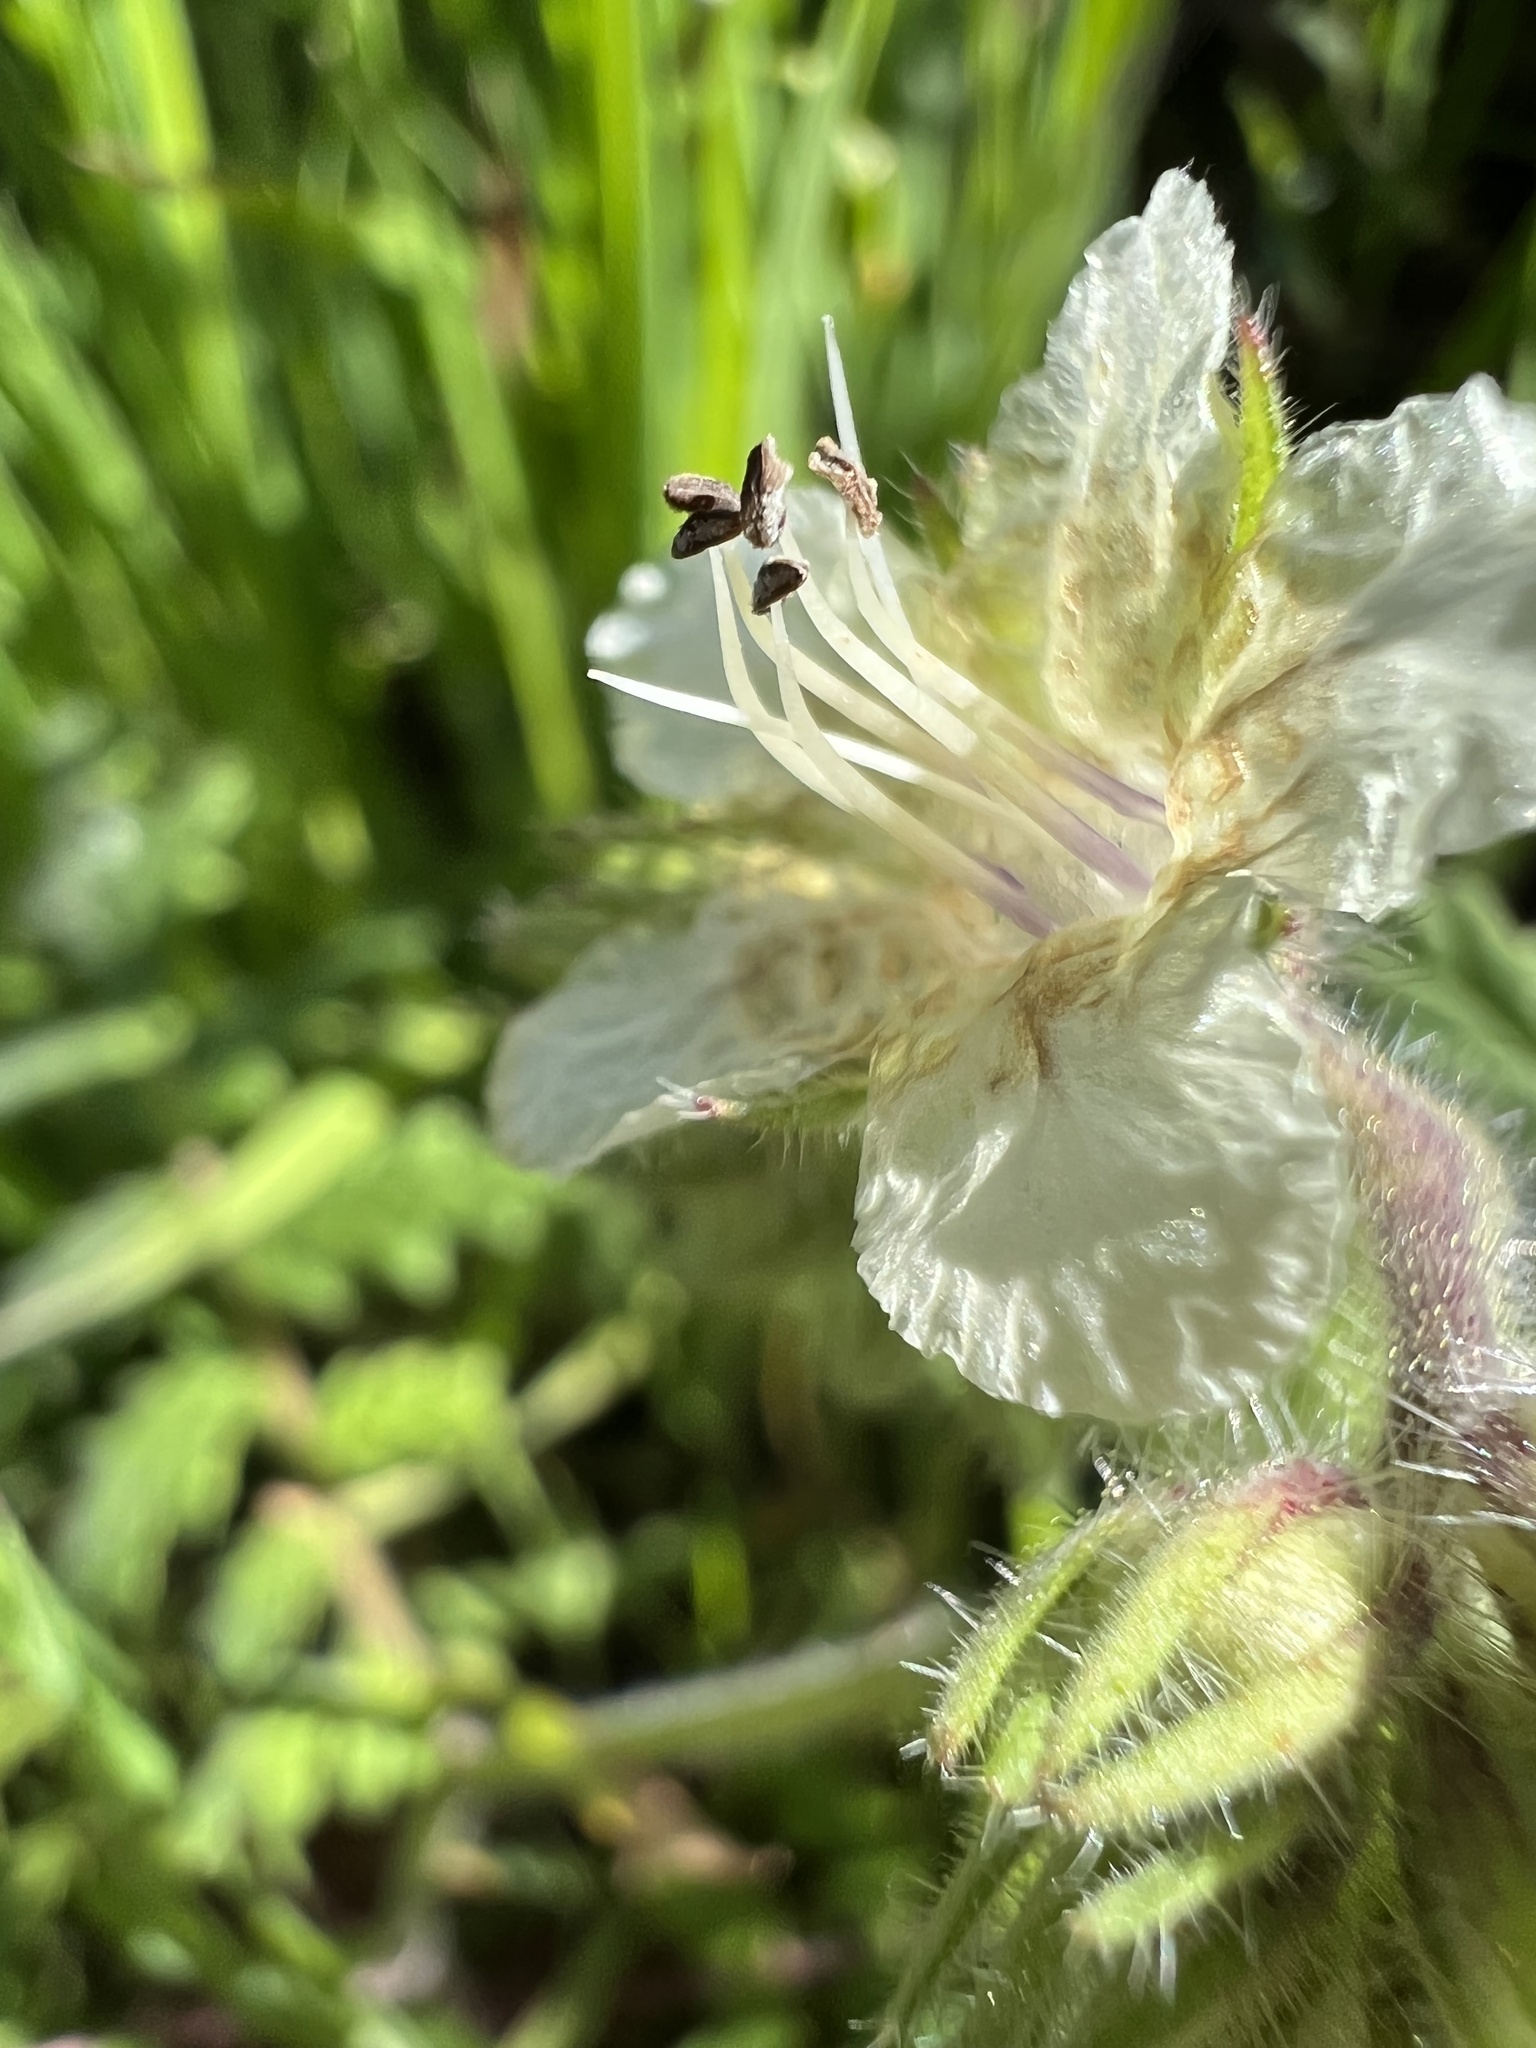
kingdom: Plantae
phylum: Tracheophyta
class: Magnoliopsida
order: Boraginales
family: Hydrophyllaceae
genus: Phacelia
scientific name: Phacelia cicutaria
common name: Caterpillar phacelia
